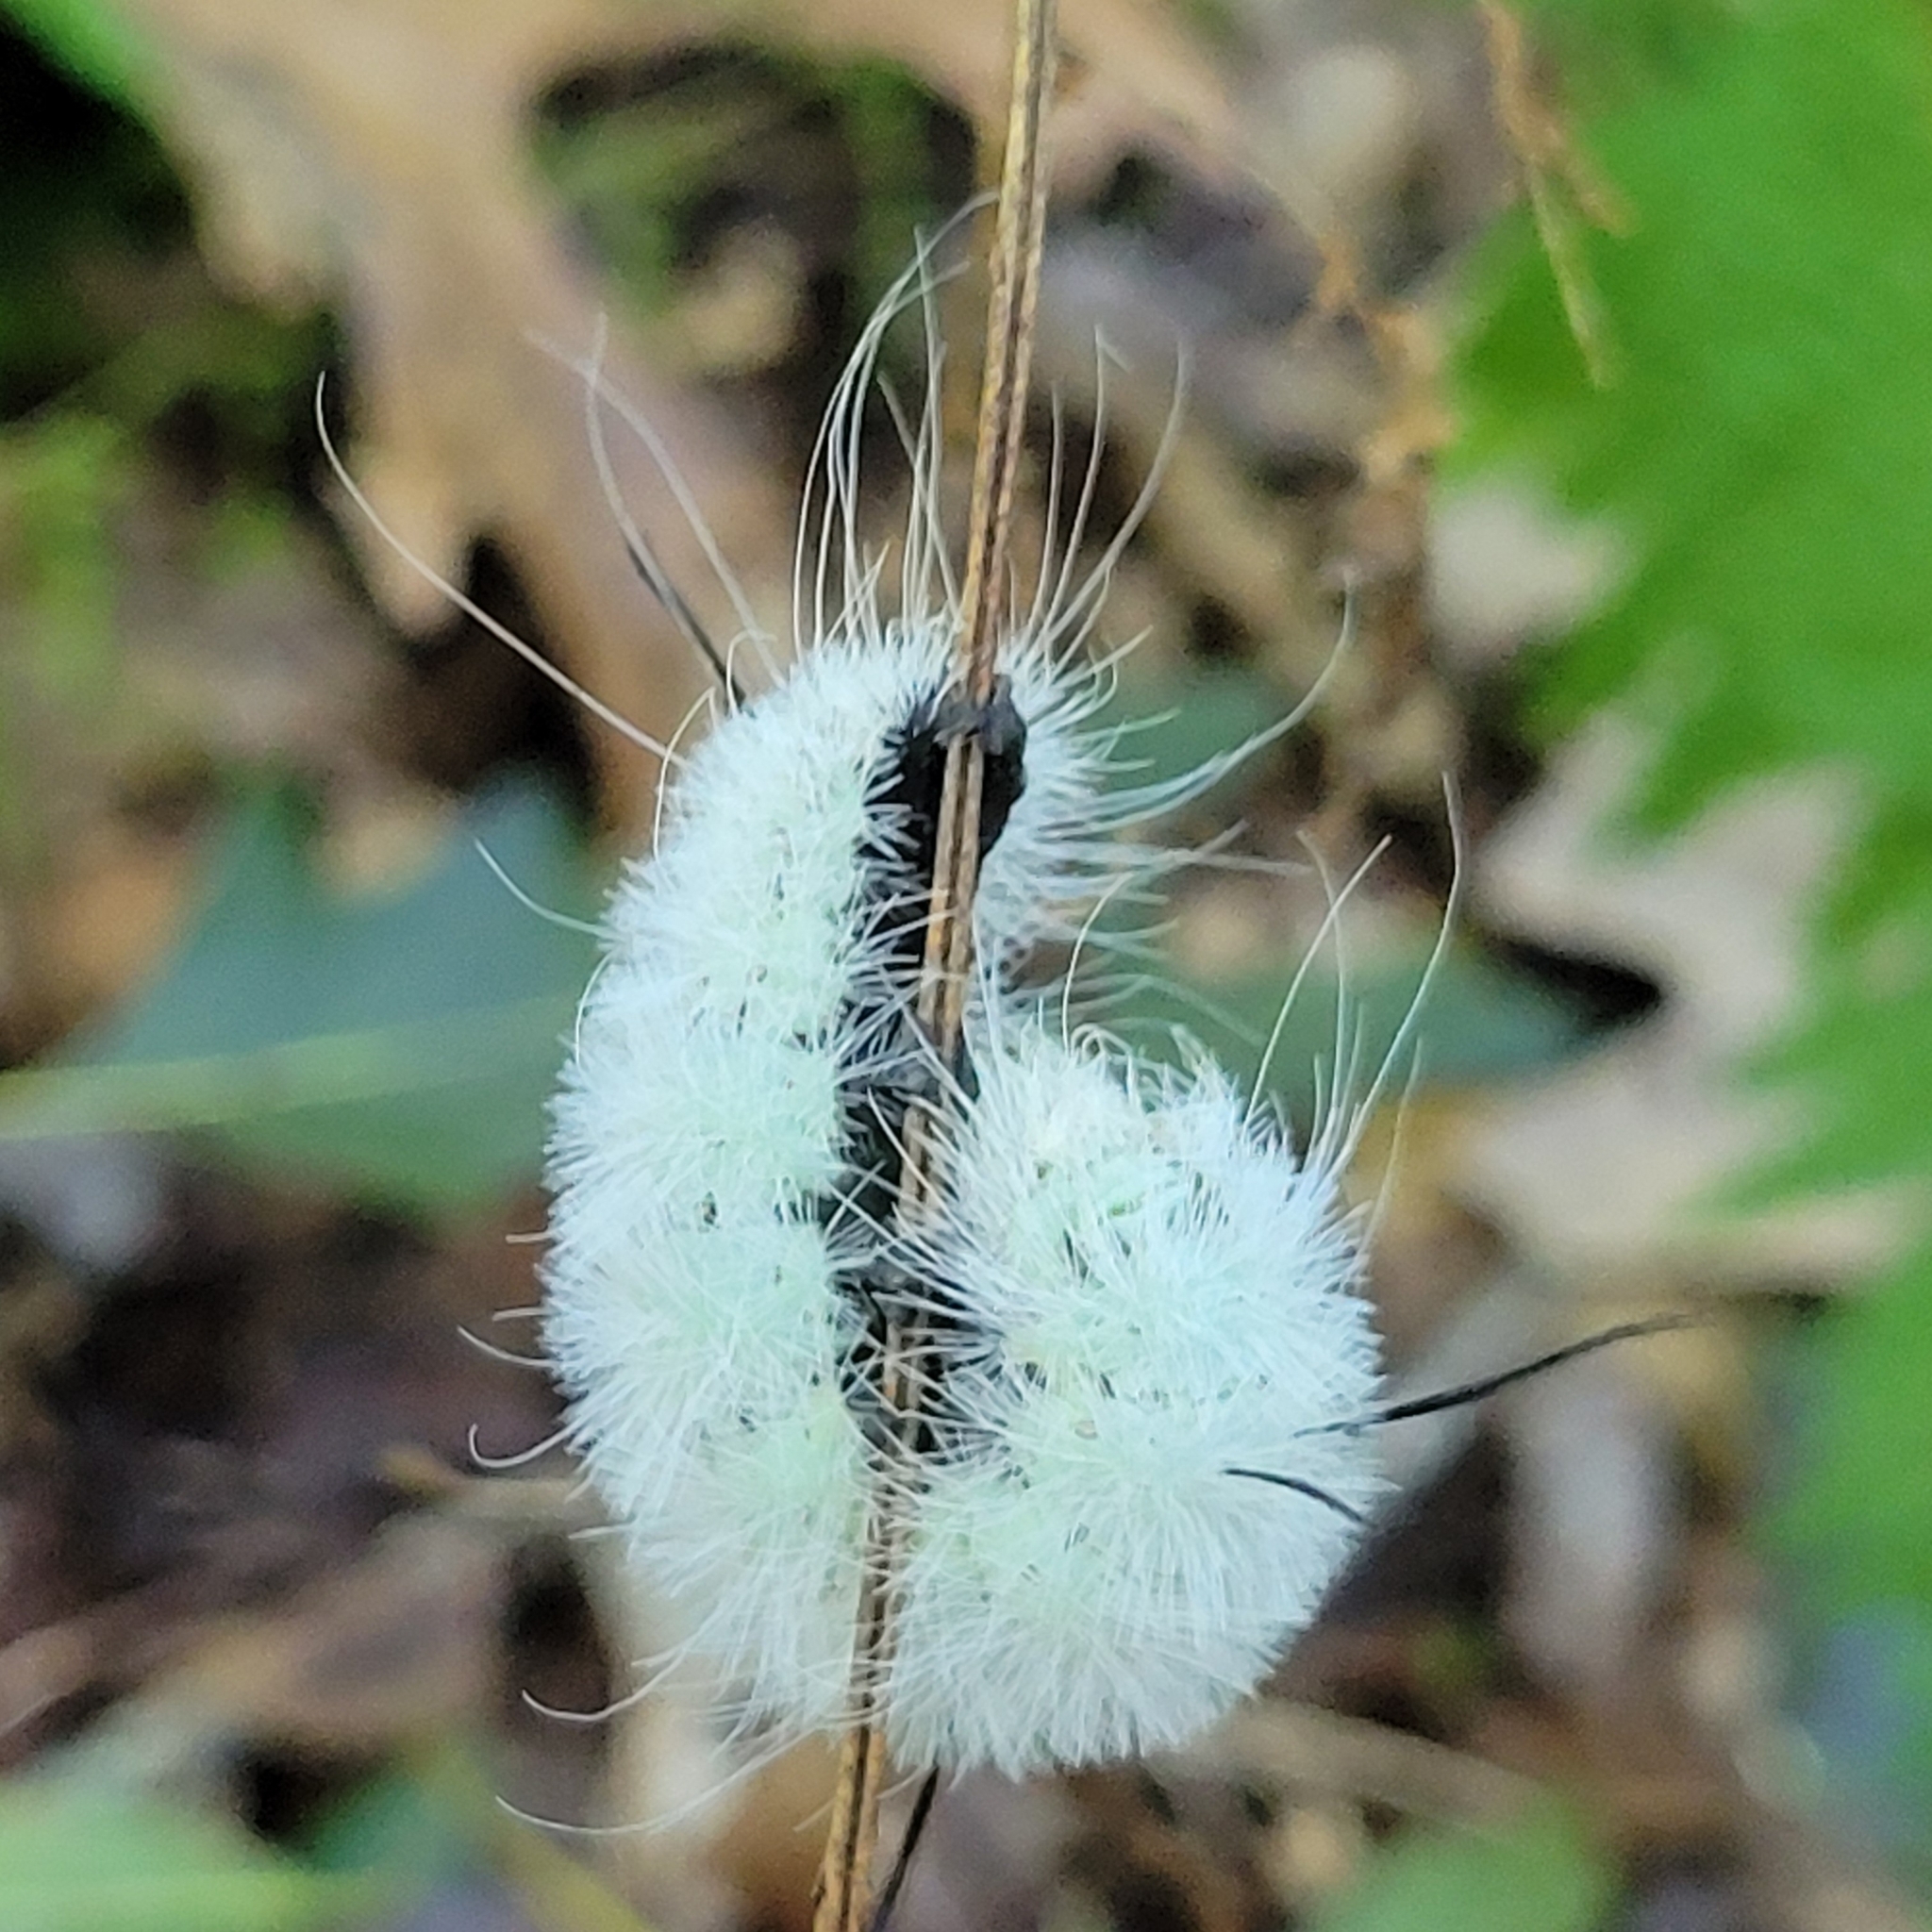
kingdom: Animalia
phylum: Arthropoda
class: Insecta
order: Lepidoptera
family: Noctuidae
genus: Acronicta
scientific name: Acronicta americana
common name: American dagger
